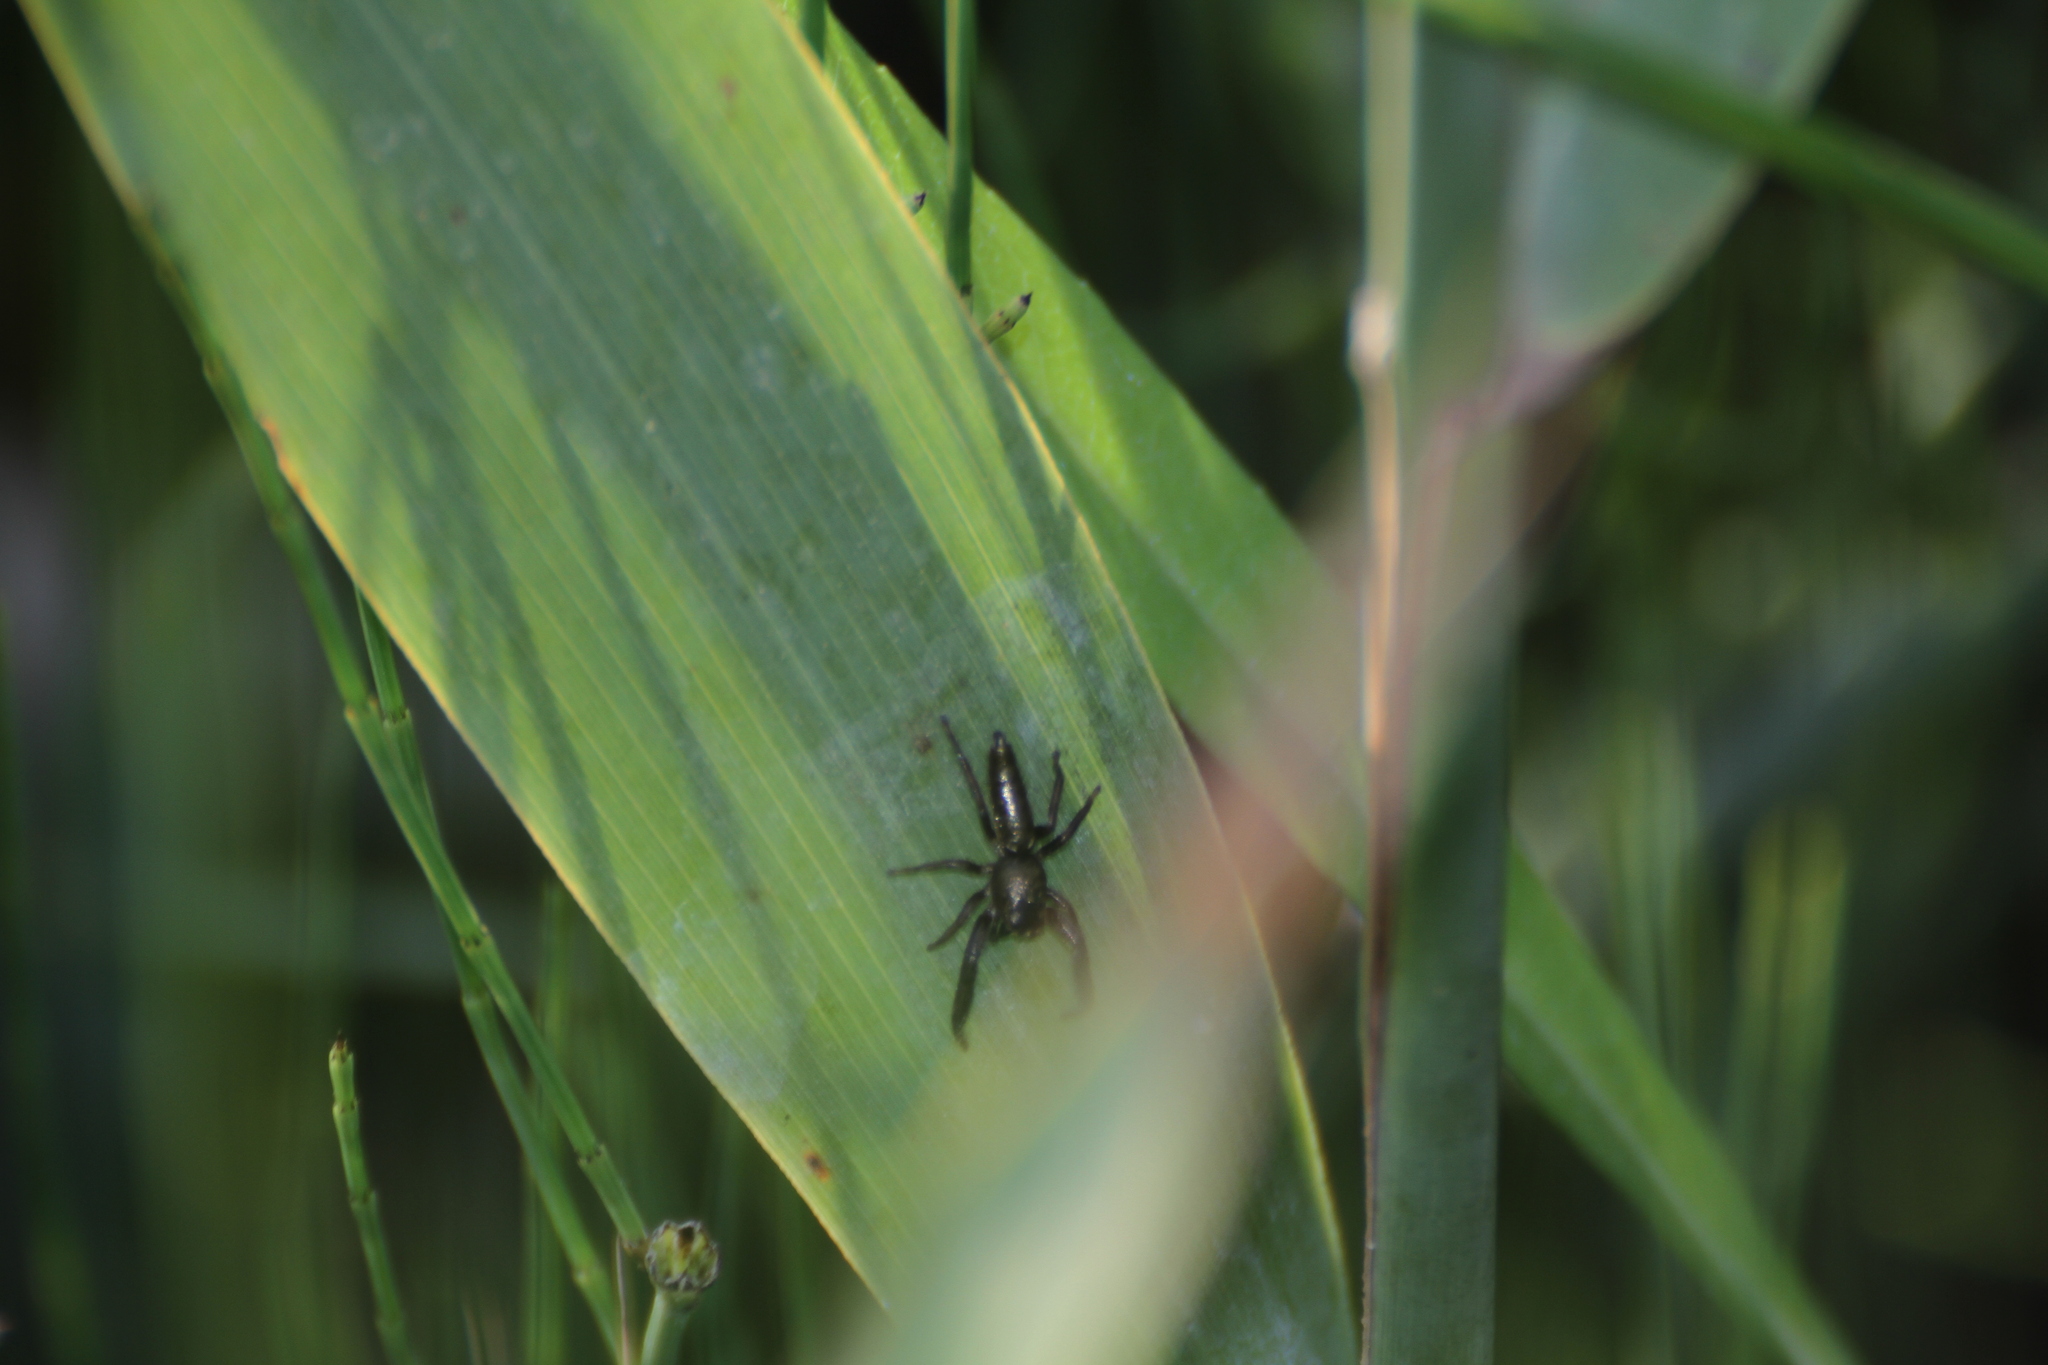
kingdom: Animalia
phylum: Arthropoda
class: Arachnida
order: Araneae
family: Salticidae
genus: Mendoza
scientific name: Mendoza canestrinii
